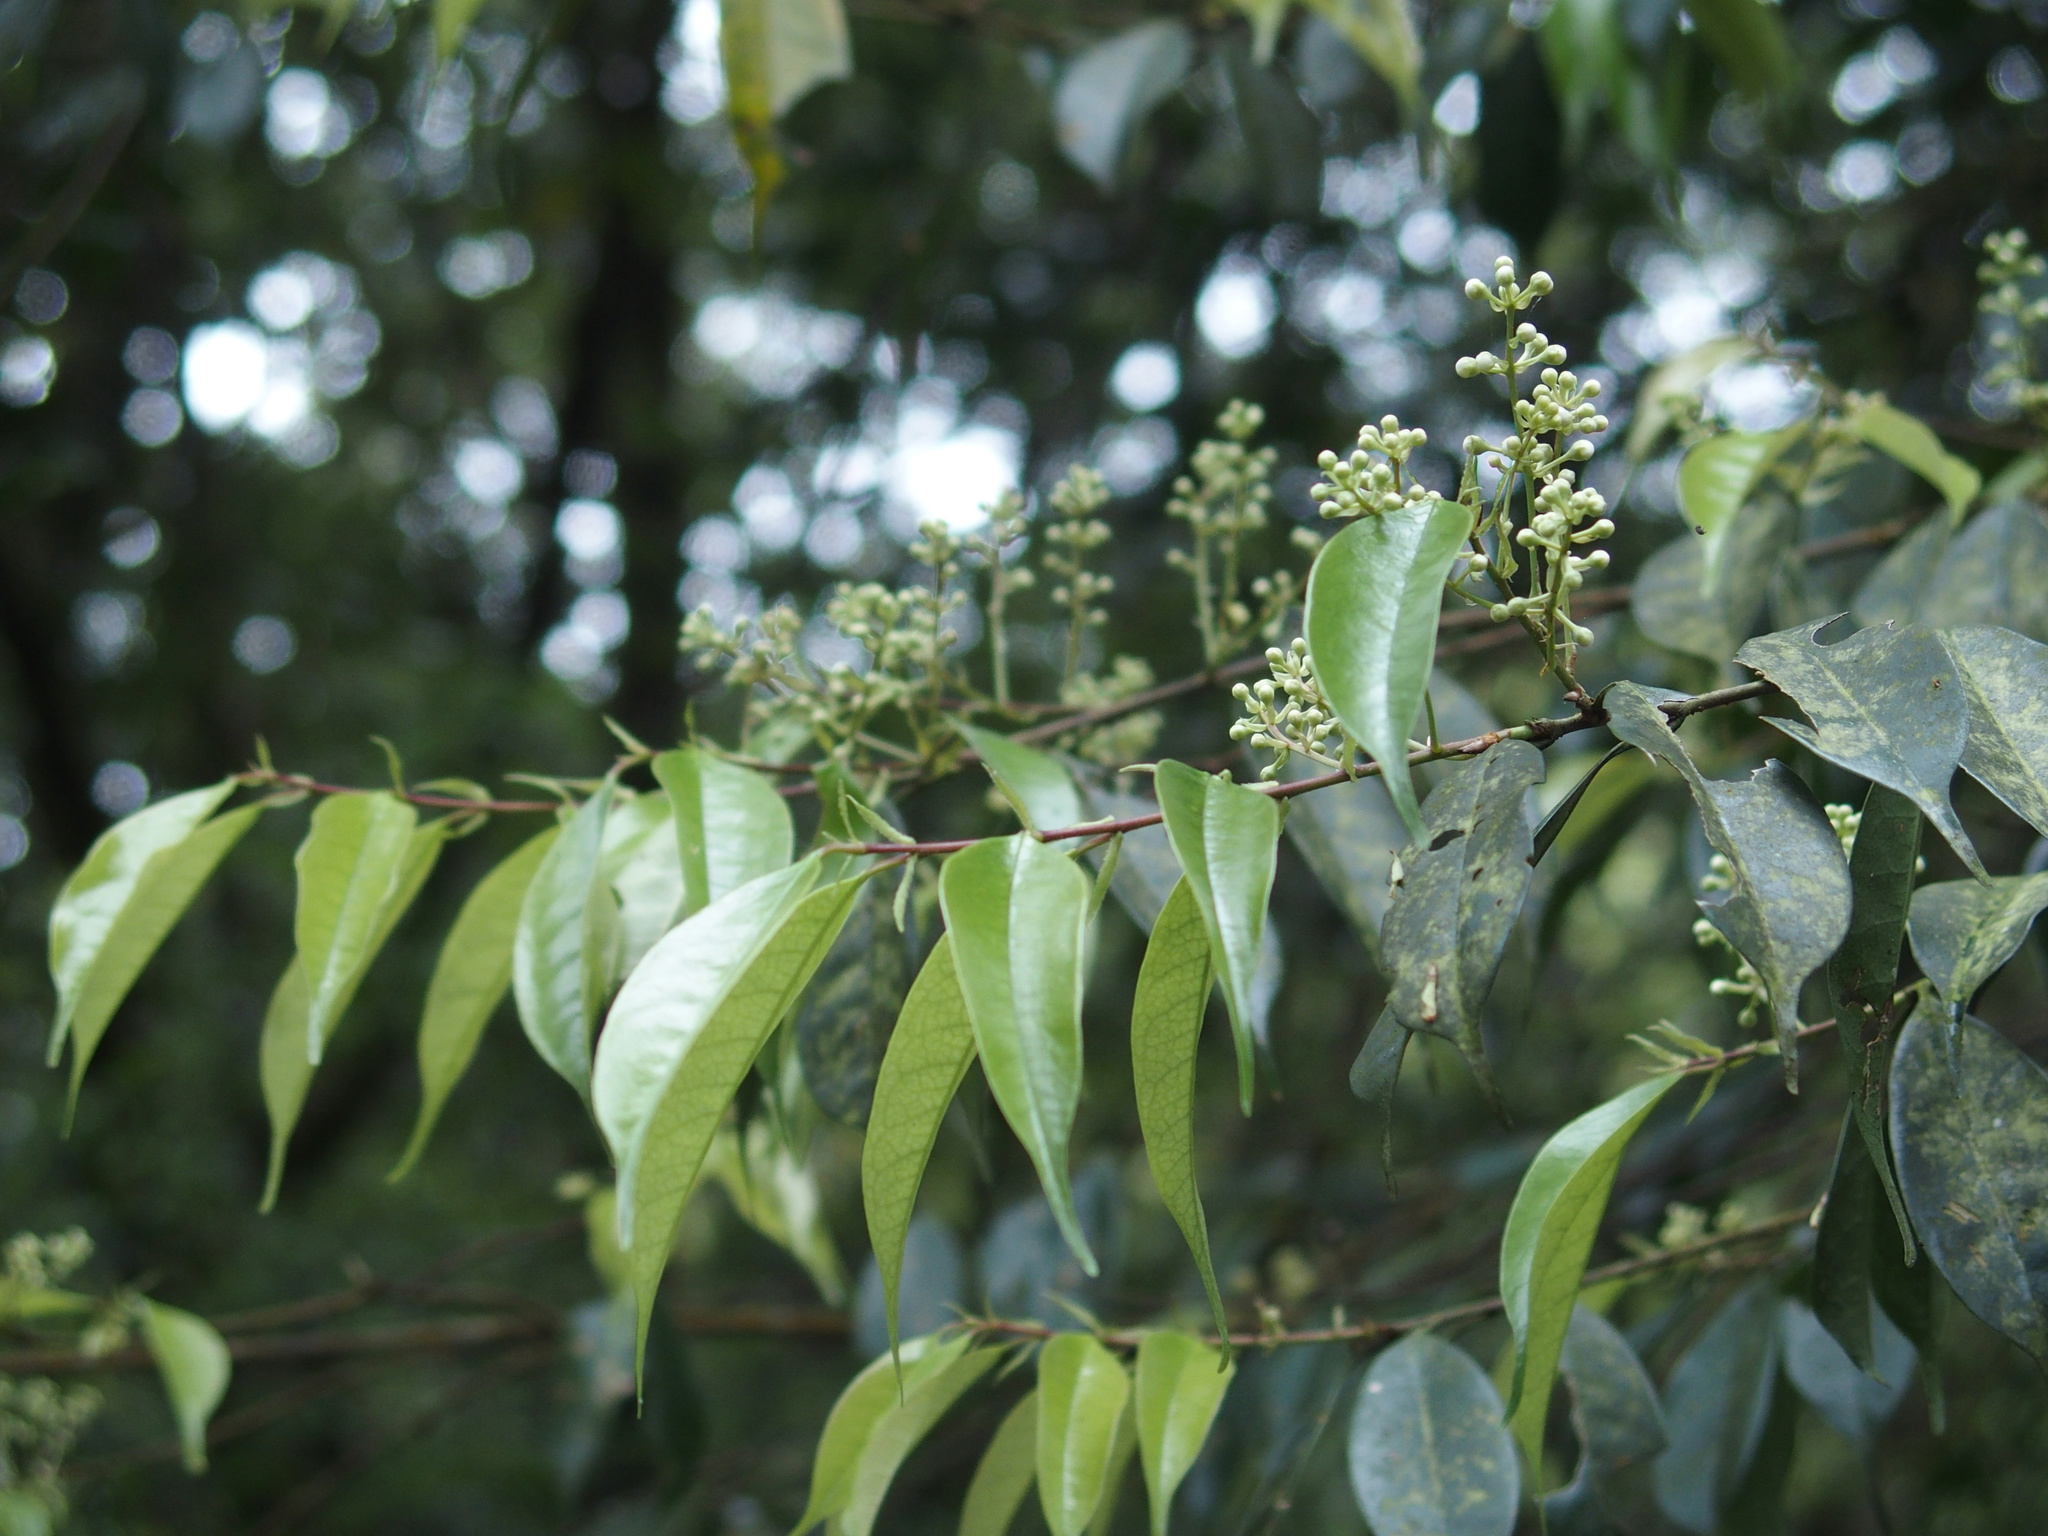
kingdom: Plantae
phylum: Tracheophyta
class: Magnoliopsida
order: Rosales
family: Rosaceae
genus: Prunus
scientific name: Prunus phaeosticta
